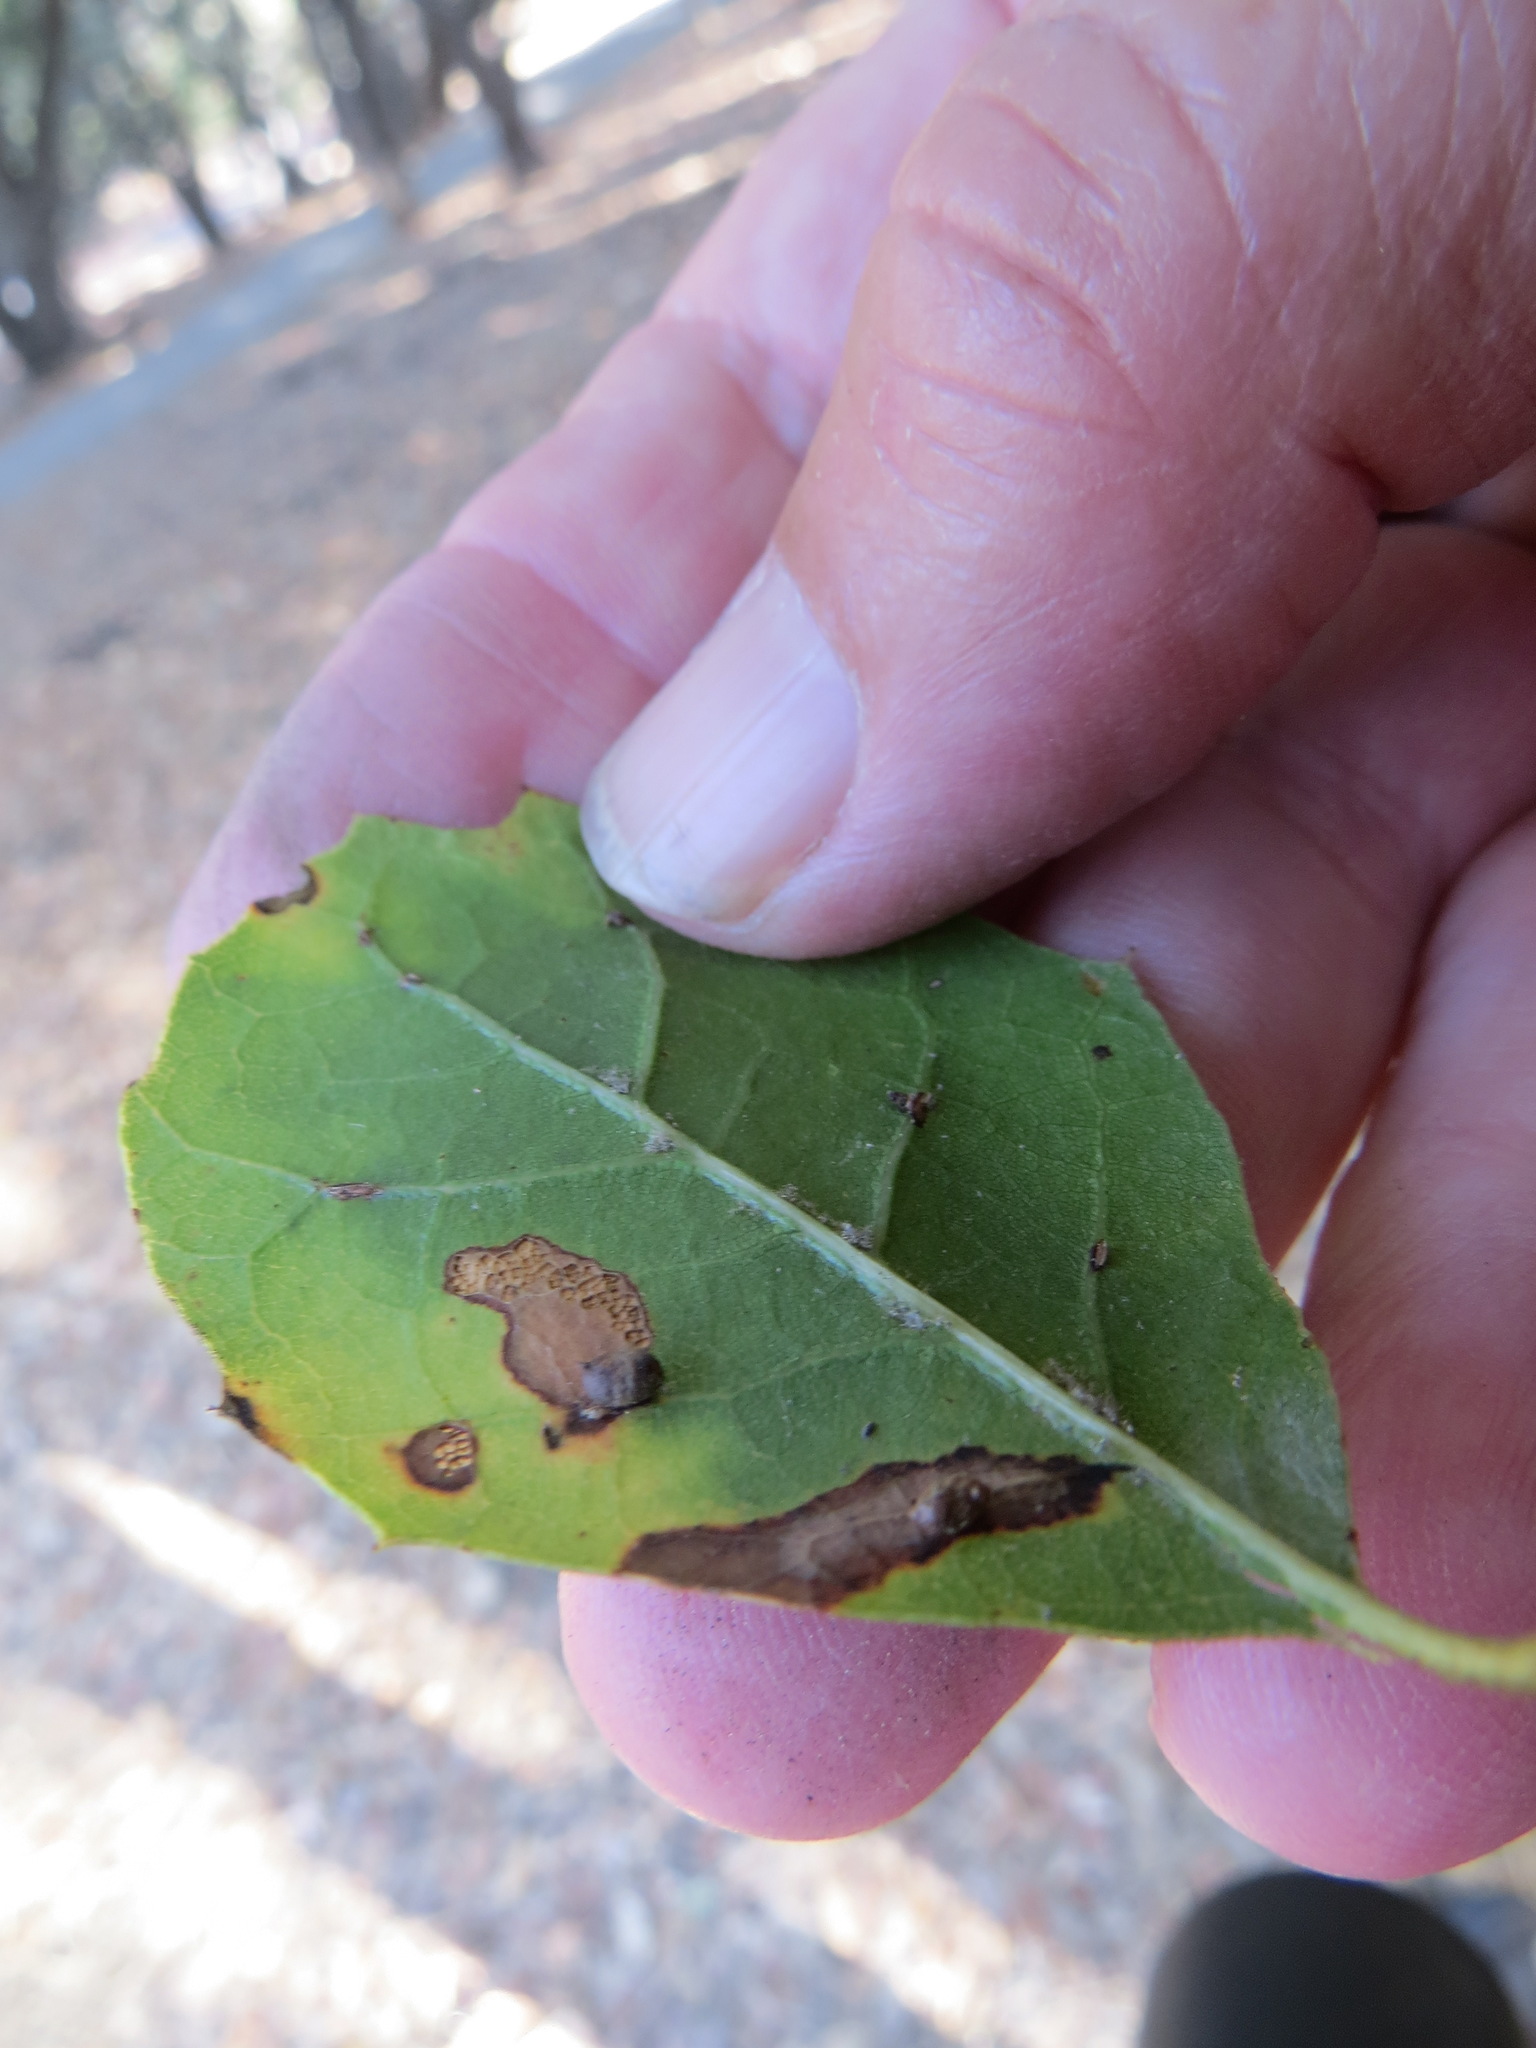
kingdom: Animalia
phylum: Arthropoda
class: Insecta
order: Hymenoptera
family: Cynipidae
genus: Dryocosmus
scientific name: Dryocosmus
